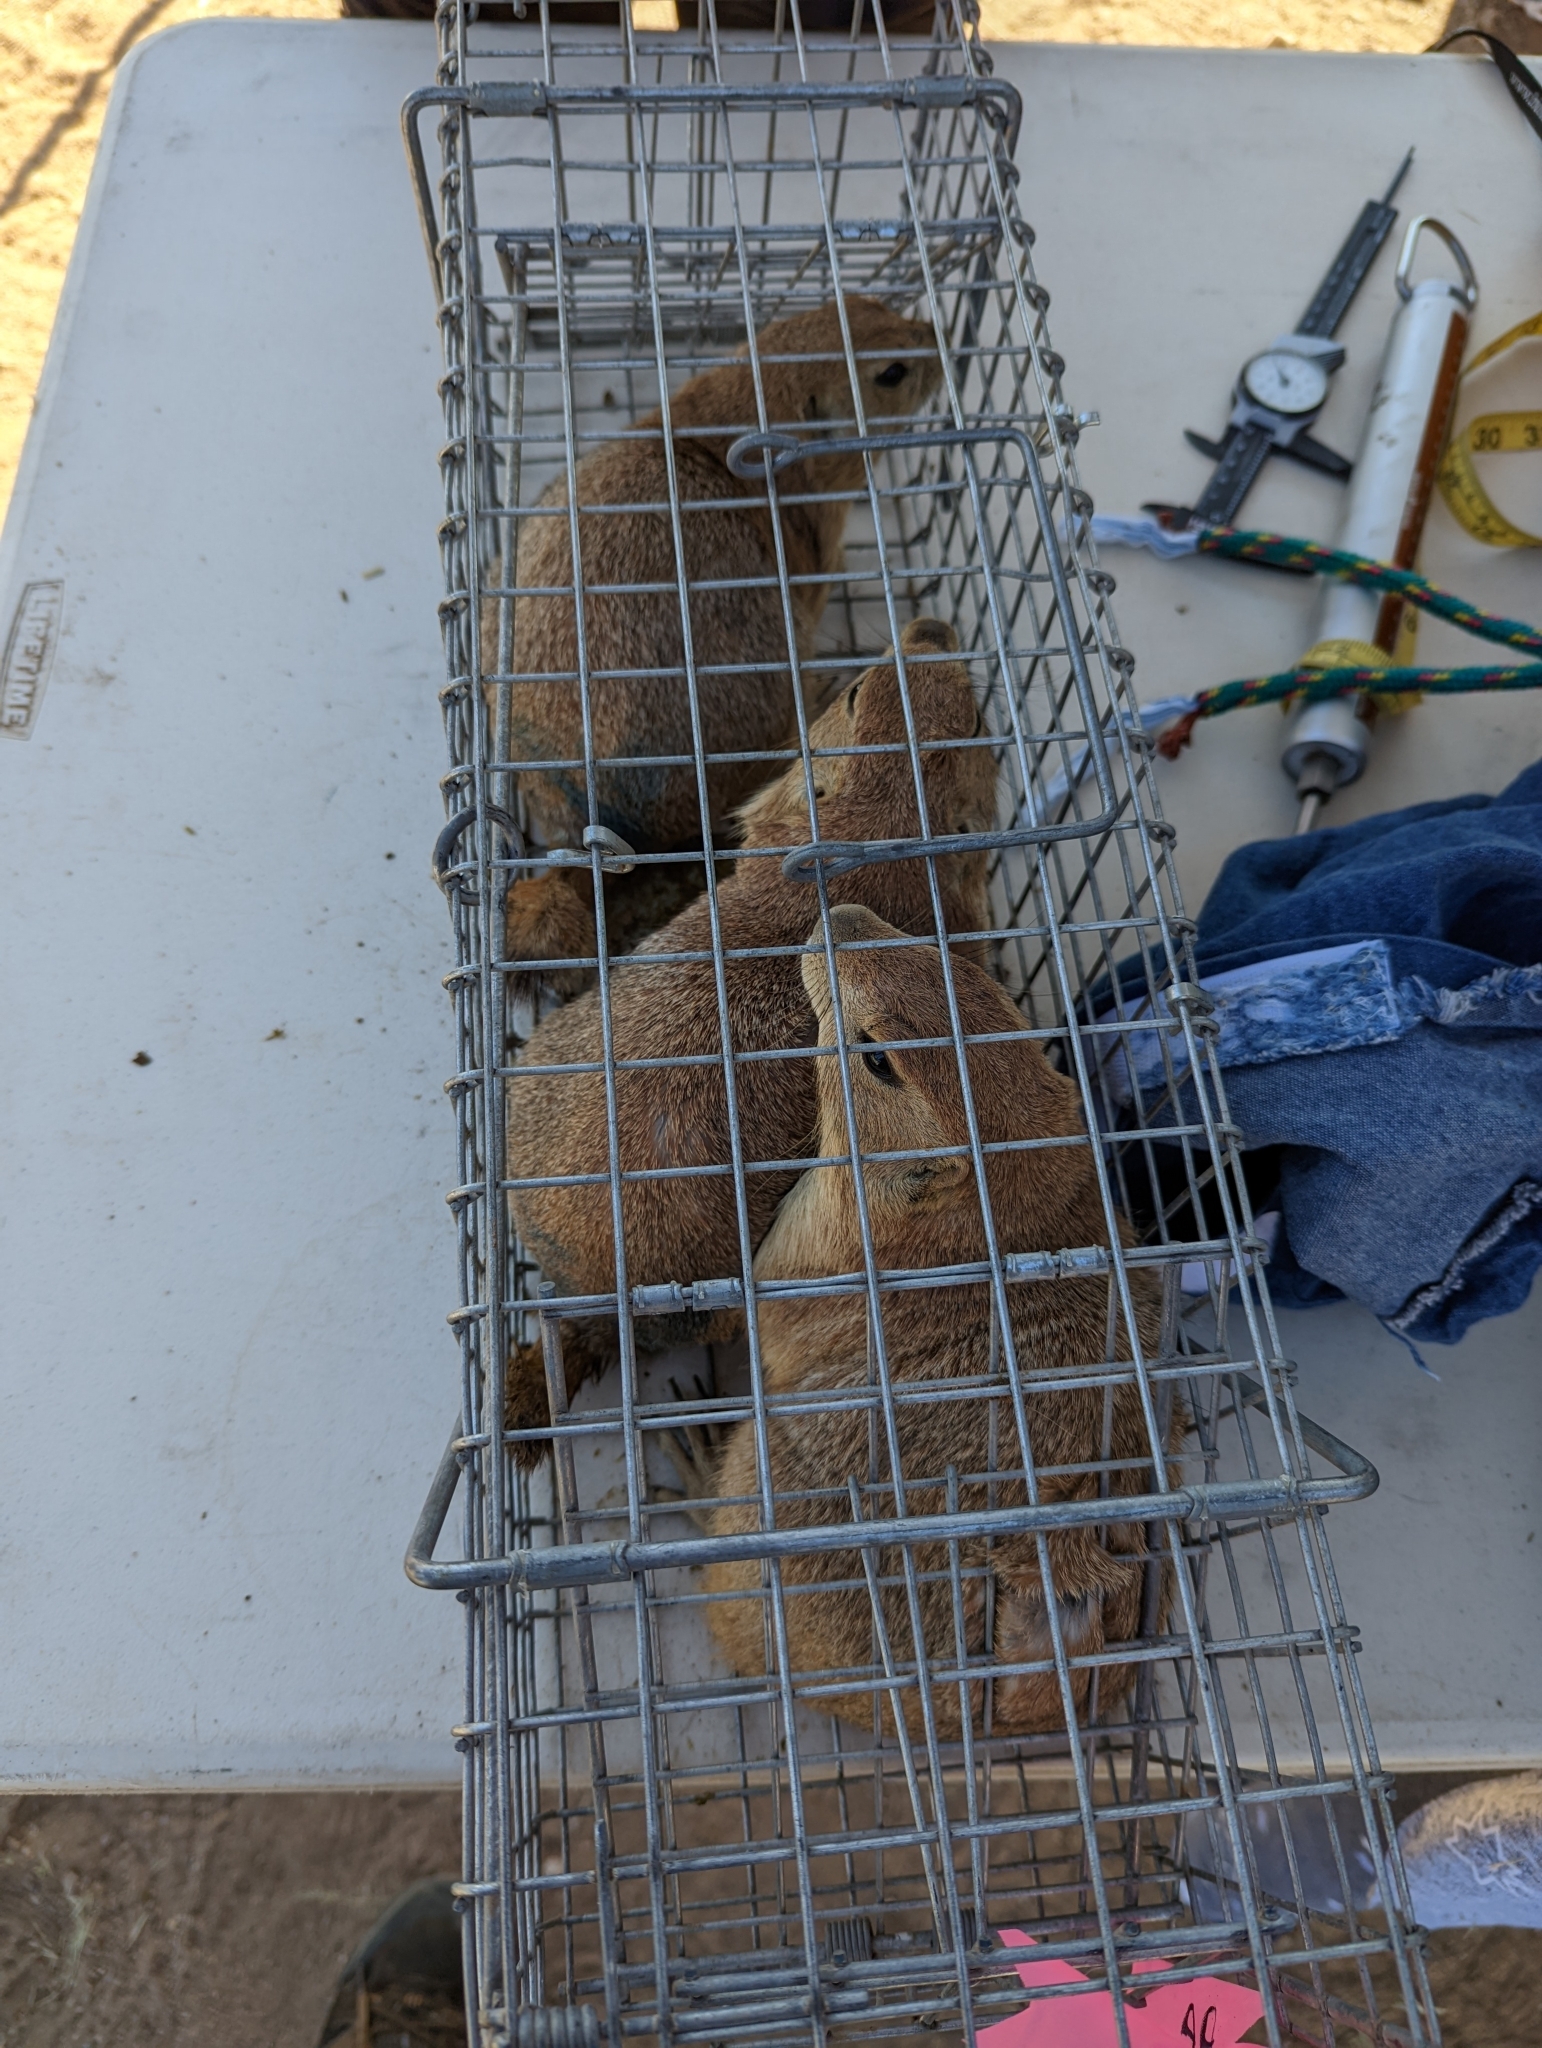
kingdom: Animalia
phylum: Chordata
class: Mammalia
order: Rodentia
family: Sciuridae
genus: Cynomys
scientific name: Cynomys ludovicianus
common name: Black-tailed prairie dog
